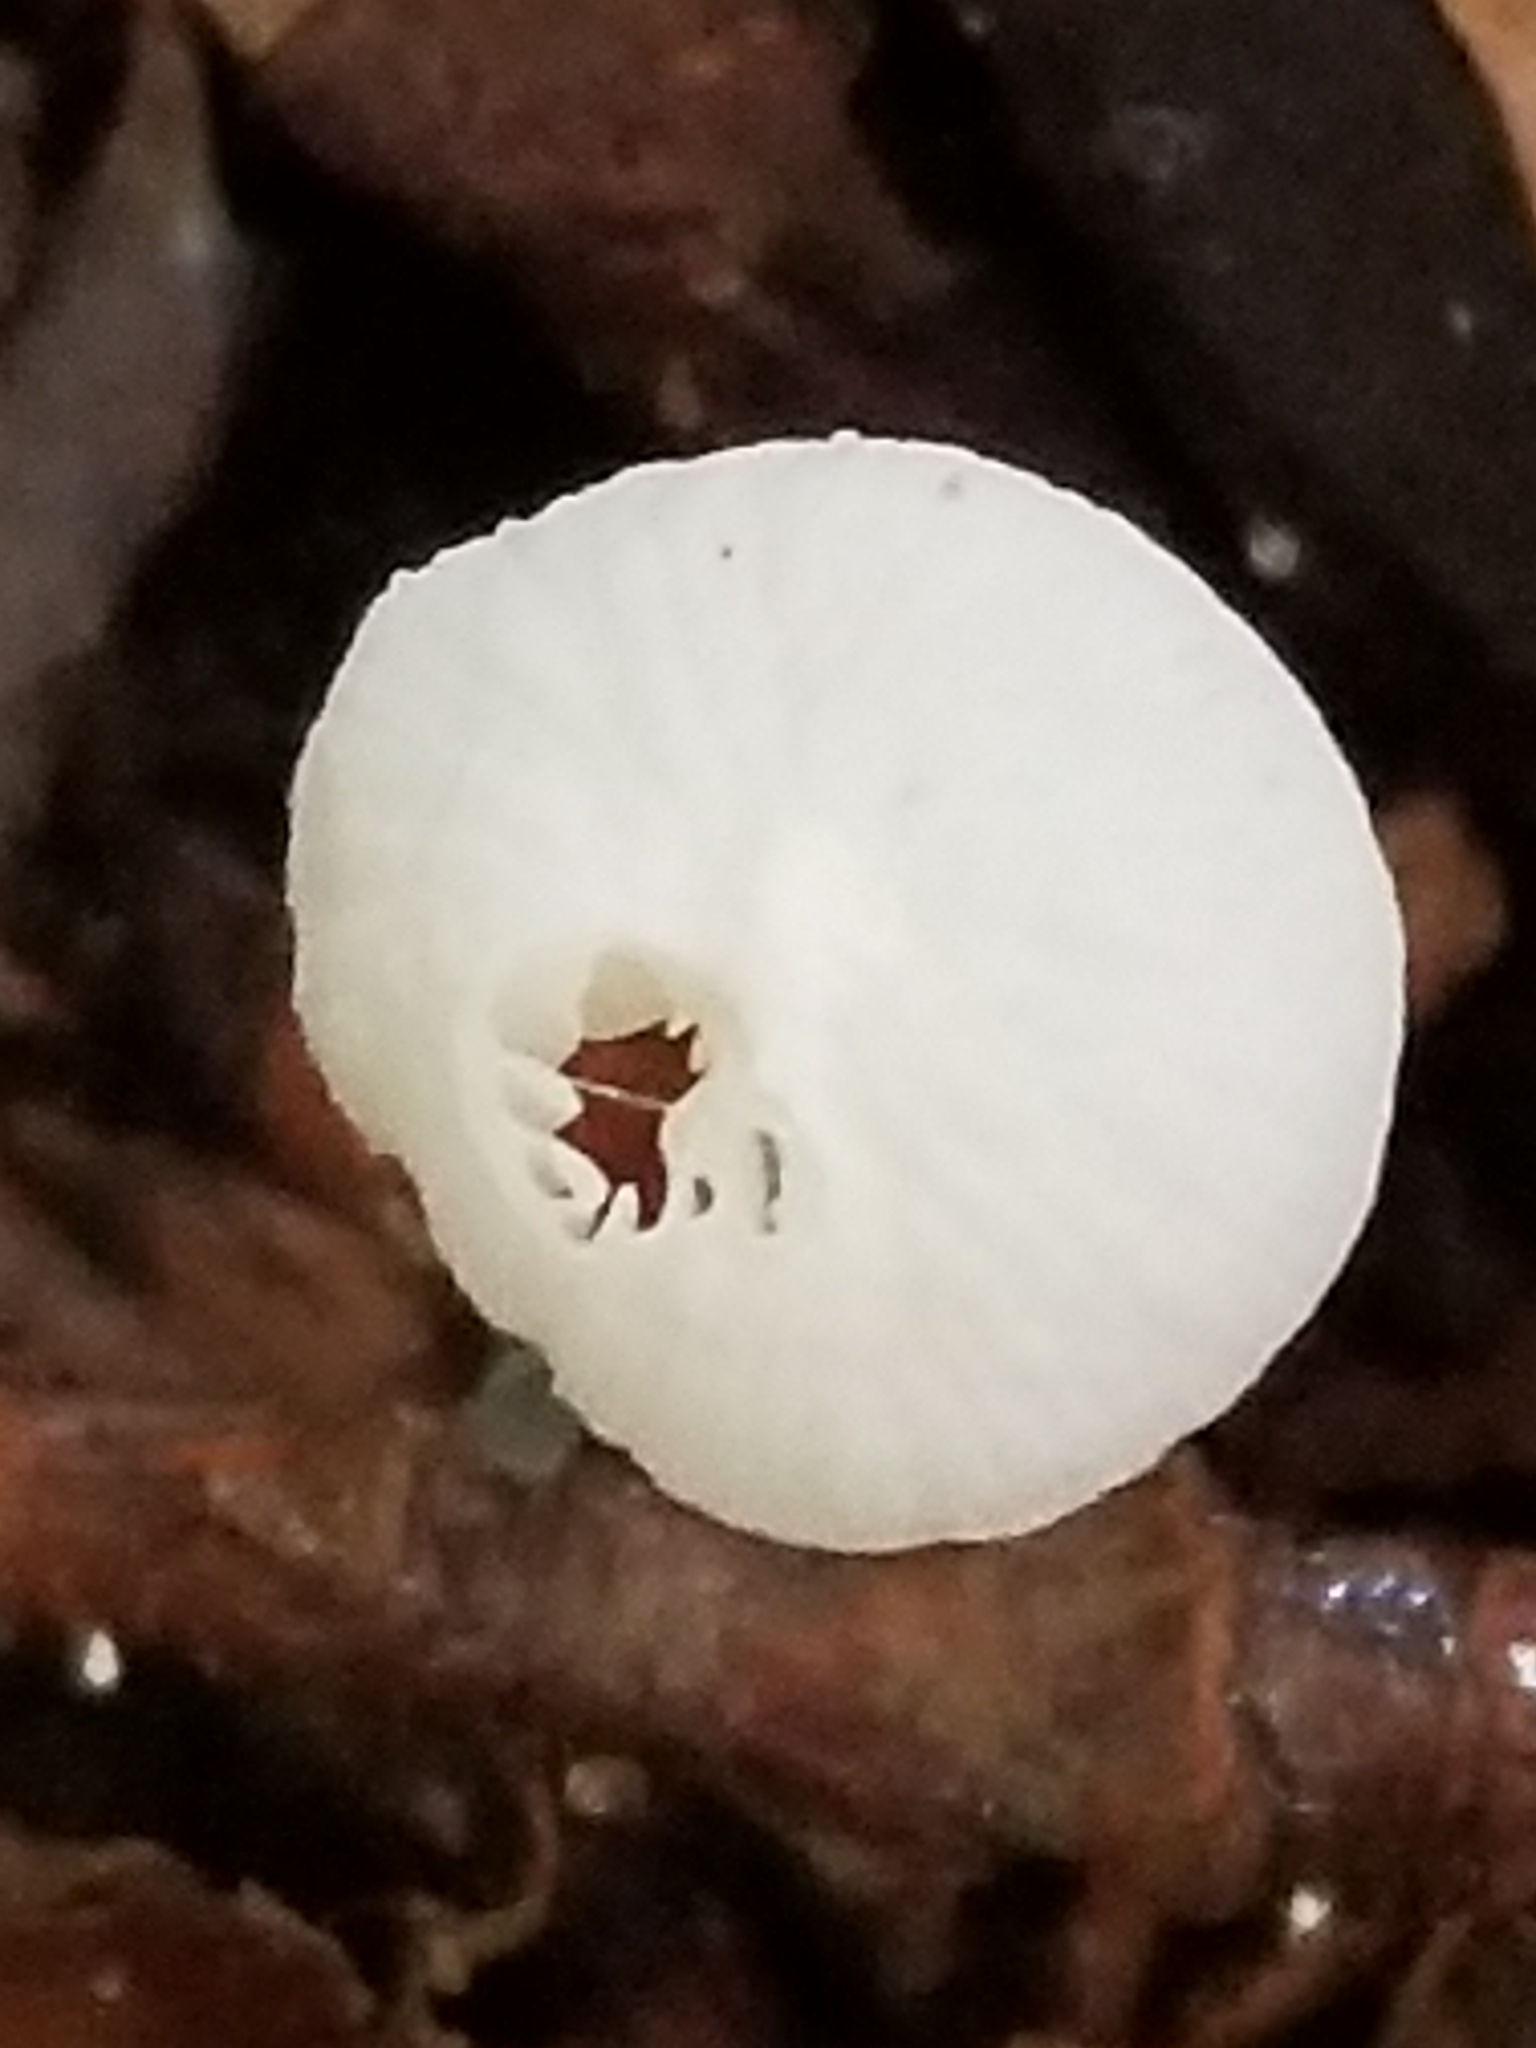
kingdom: Fungi
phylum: Basidiomycota
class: Agaricomycetes
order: Agaricales
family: Marasmiaceae
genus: Tetrapyrgos
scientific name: Tetrapyrgos nigripes
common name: Black-stalked marasmius
